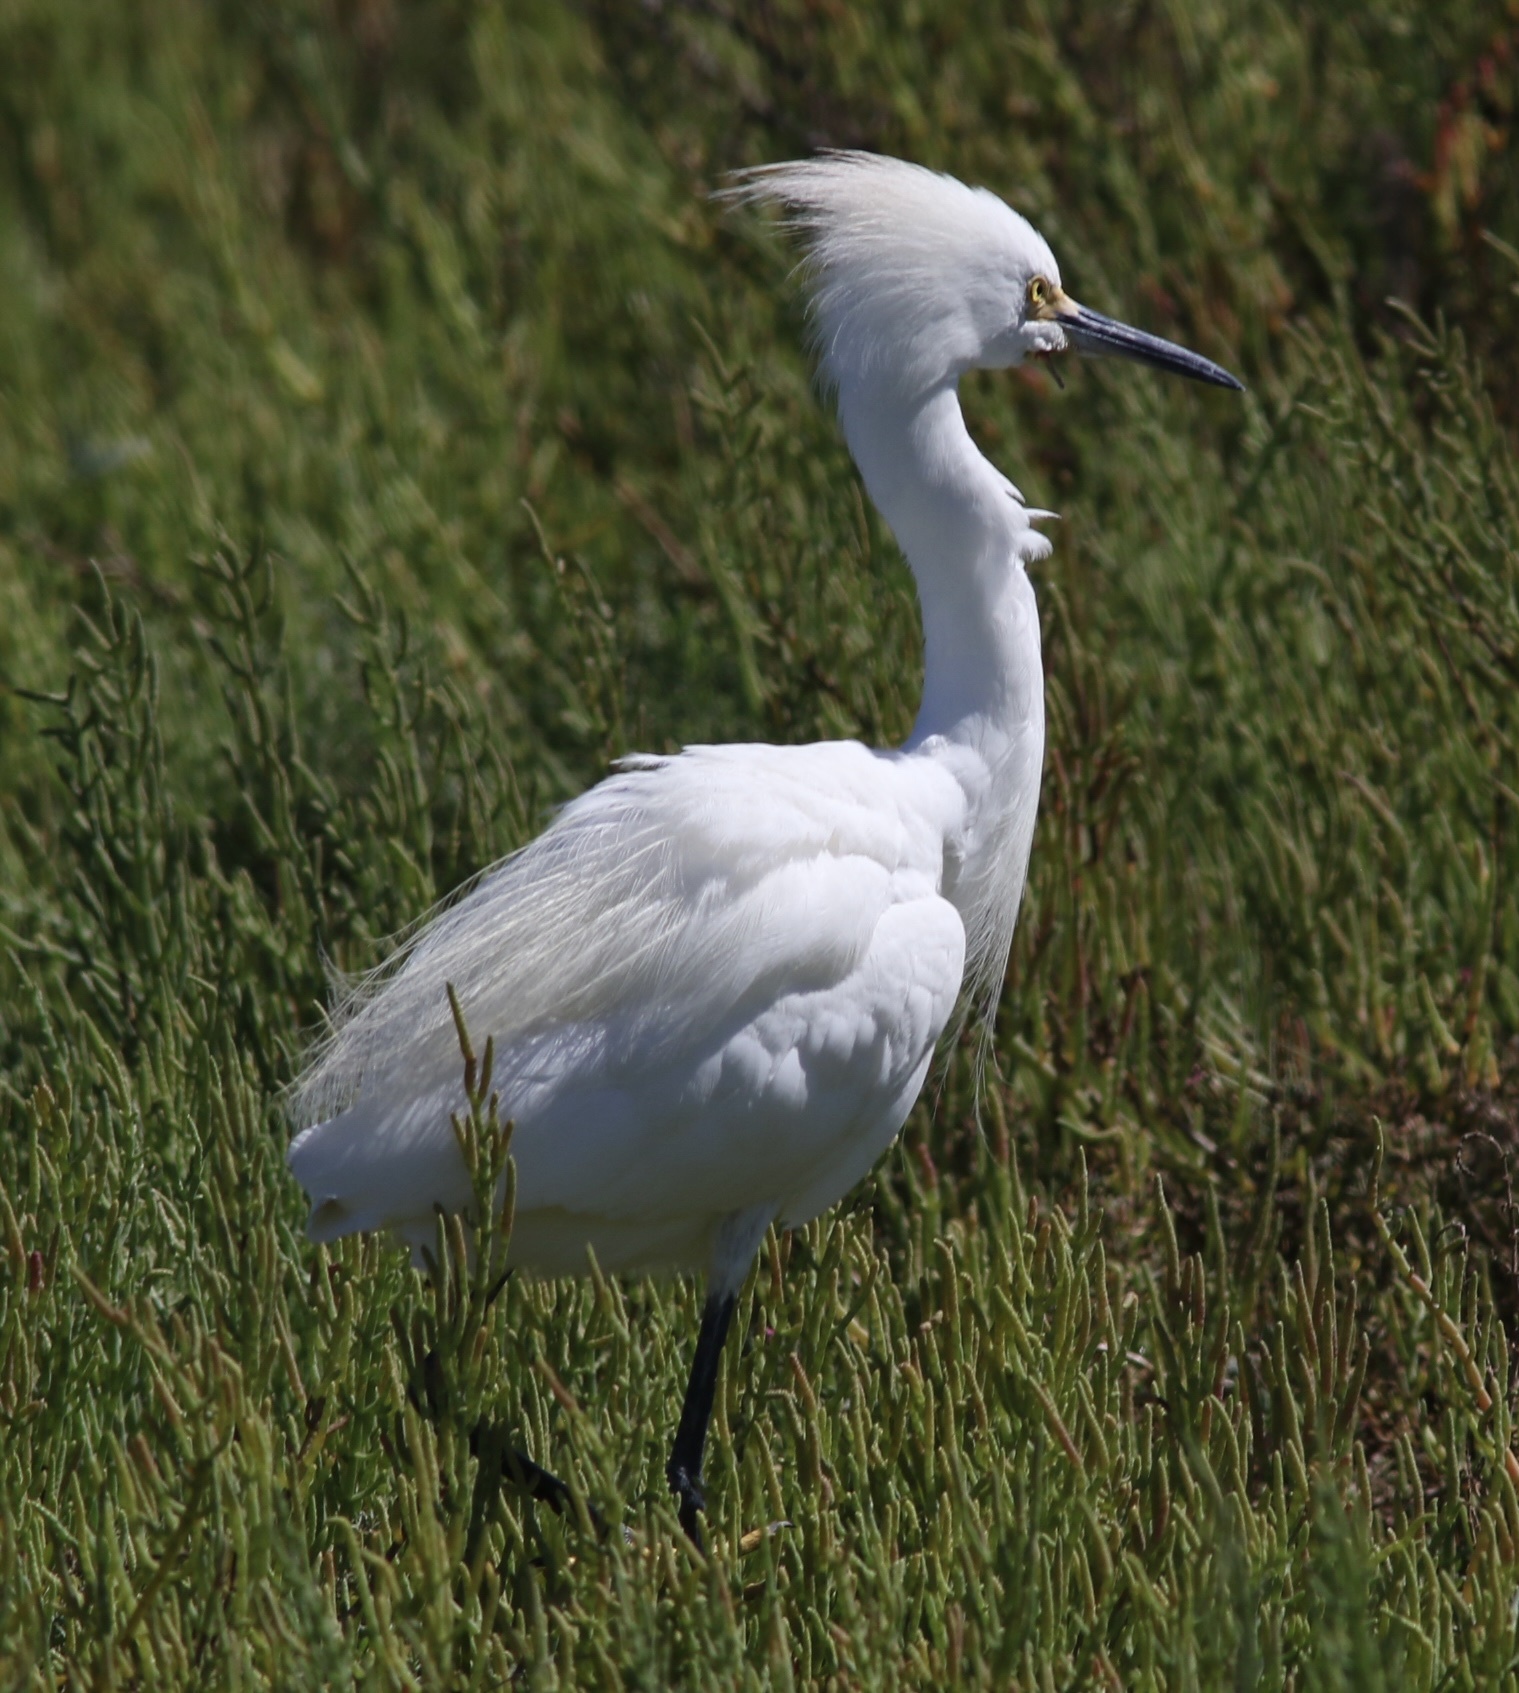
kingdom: Animalia
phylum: Chordata
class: Aves
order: Pelecaniformes
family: Ardeidae
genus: Egretta
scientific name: Egretta thula
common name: Snowy egret
